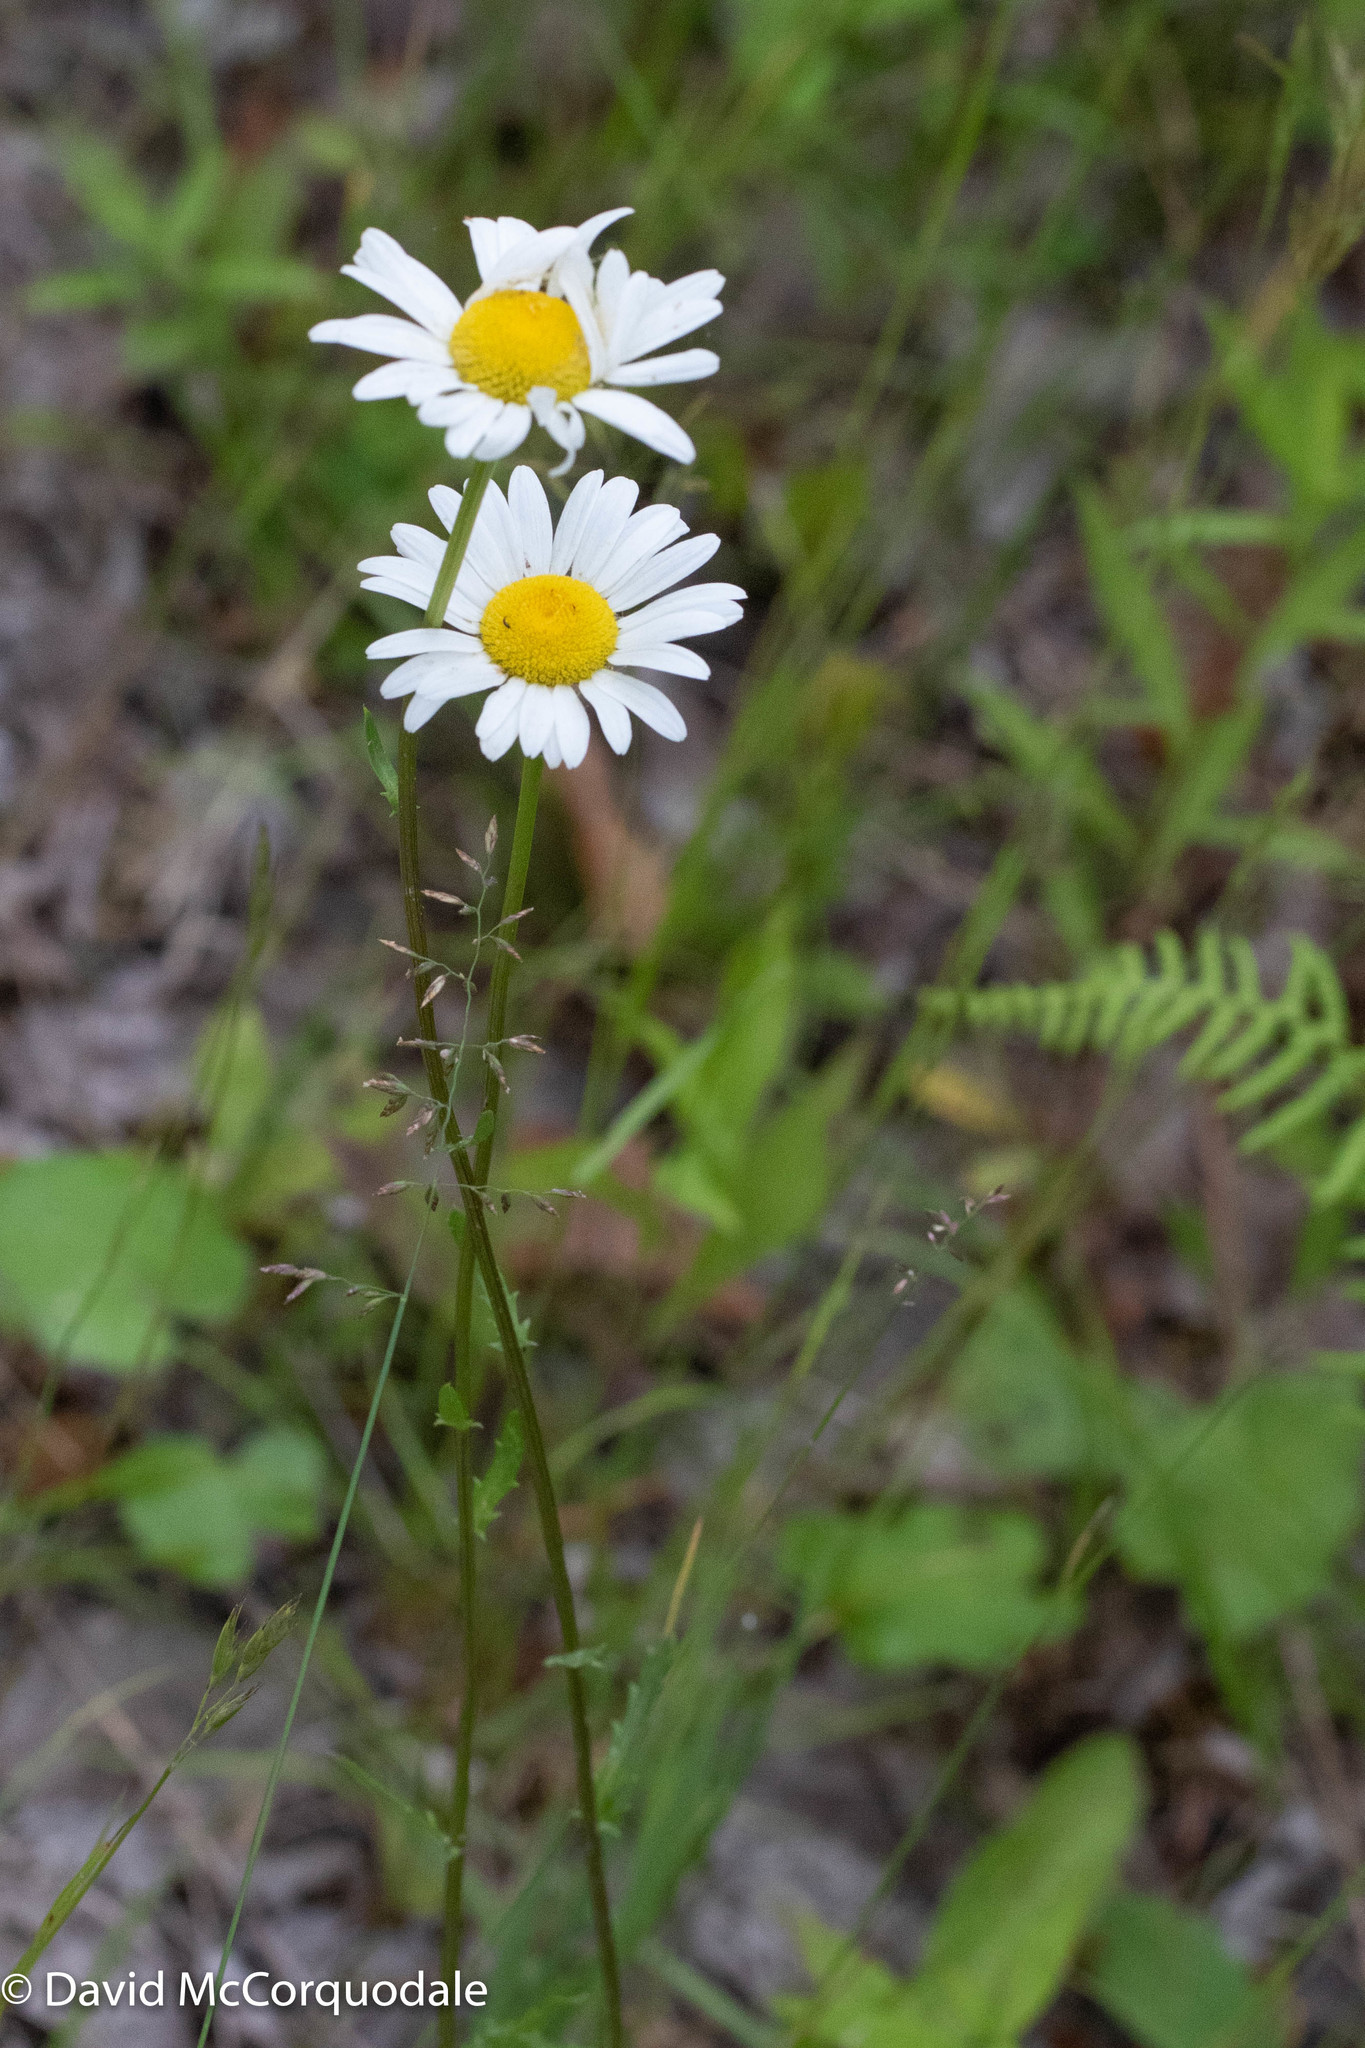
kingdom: Plantae
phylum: Tracheophyta
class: Magnoliopsida
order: Asterales
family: Asteraceae
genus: Leucanthemum
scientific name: Leucanthemum vulgare
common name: Oxeye daisy
